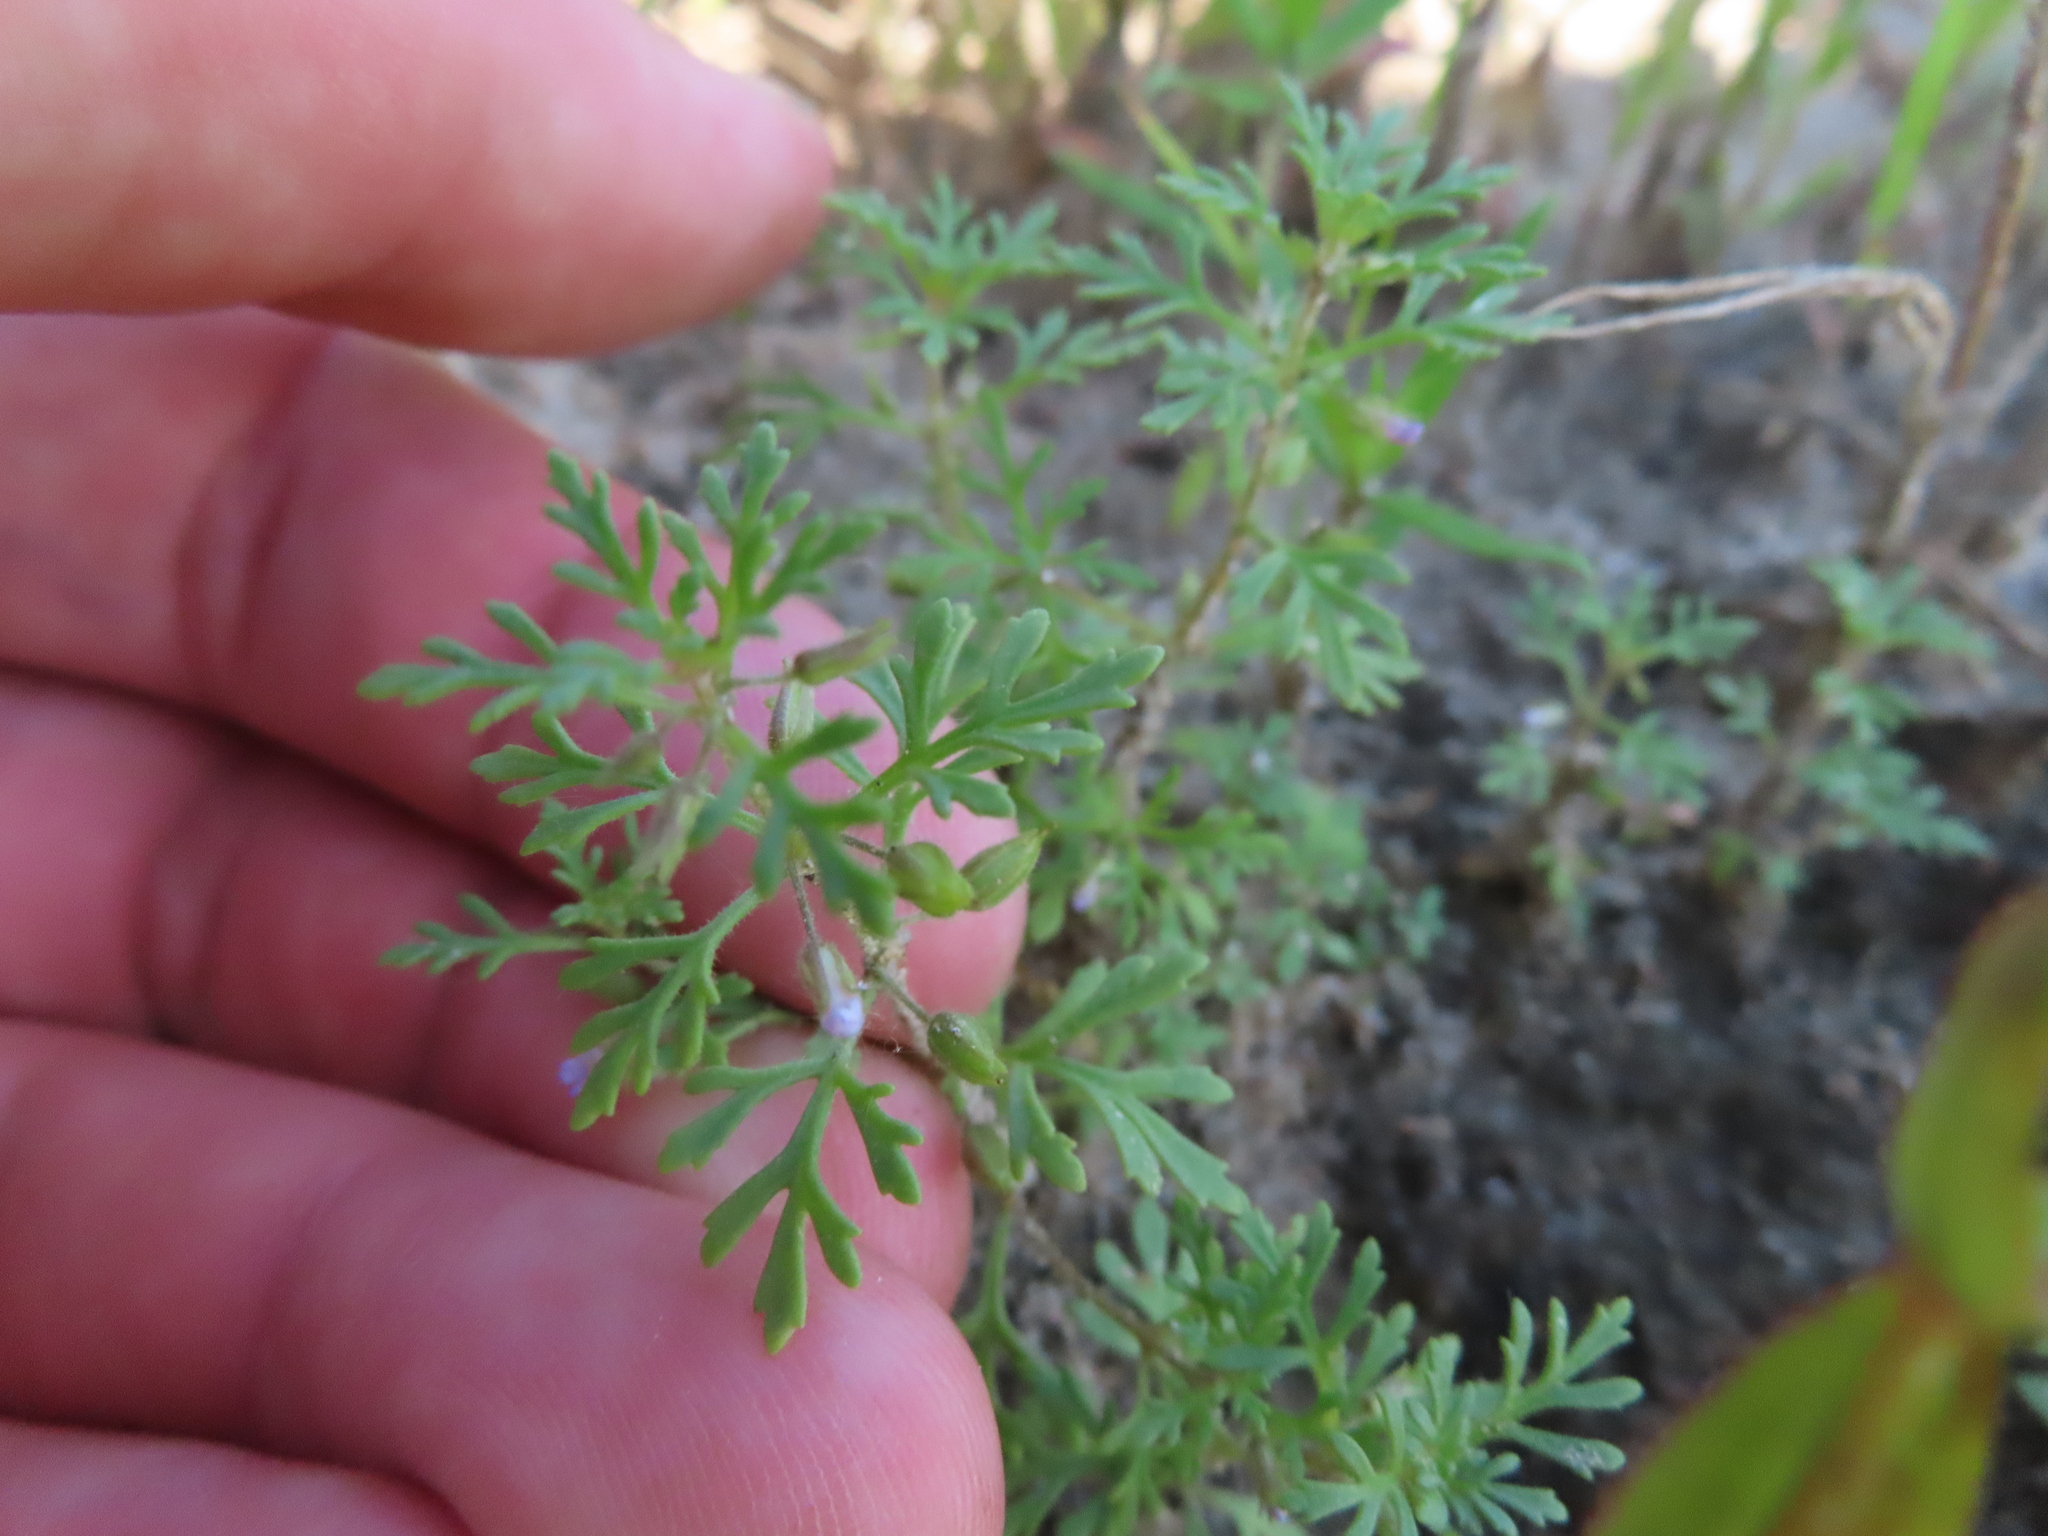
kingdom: Plantae
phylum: Tracheophyta
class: Magnoliopsida
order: Lamiales
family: Plantaginaceae
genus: Leucospora
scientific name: Leucospora multifida
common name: Narrow-leaf paleseed
